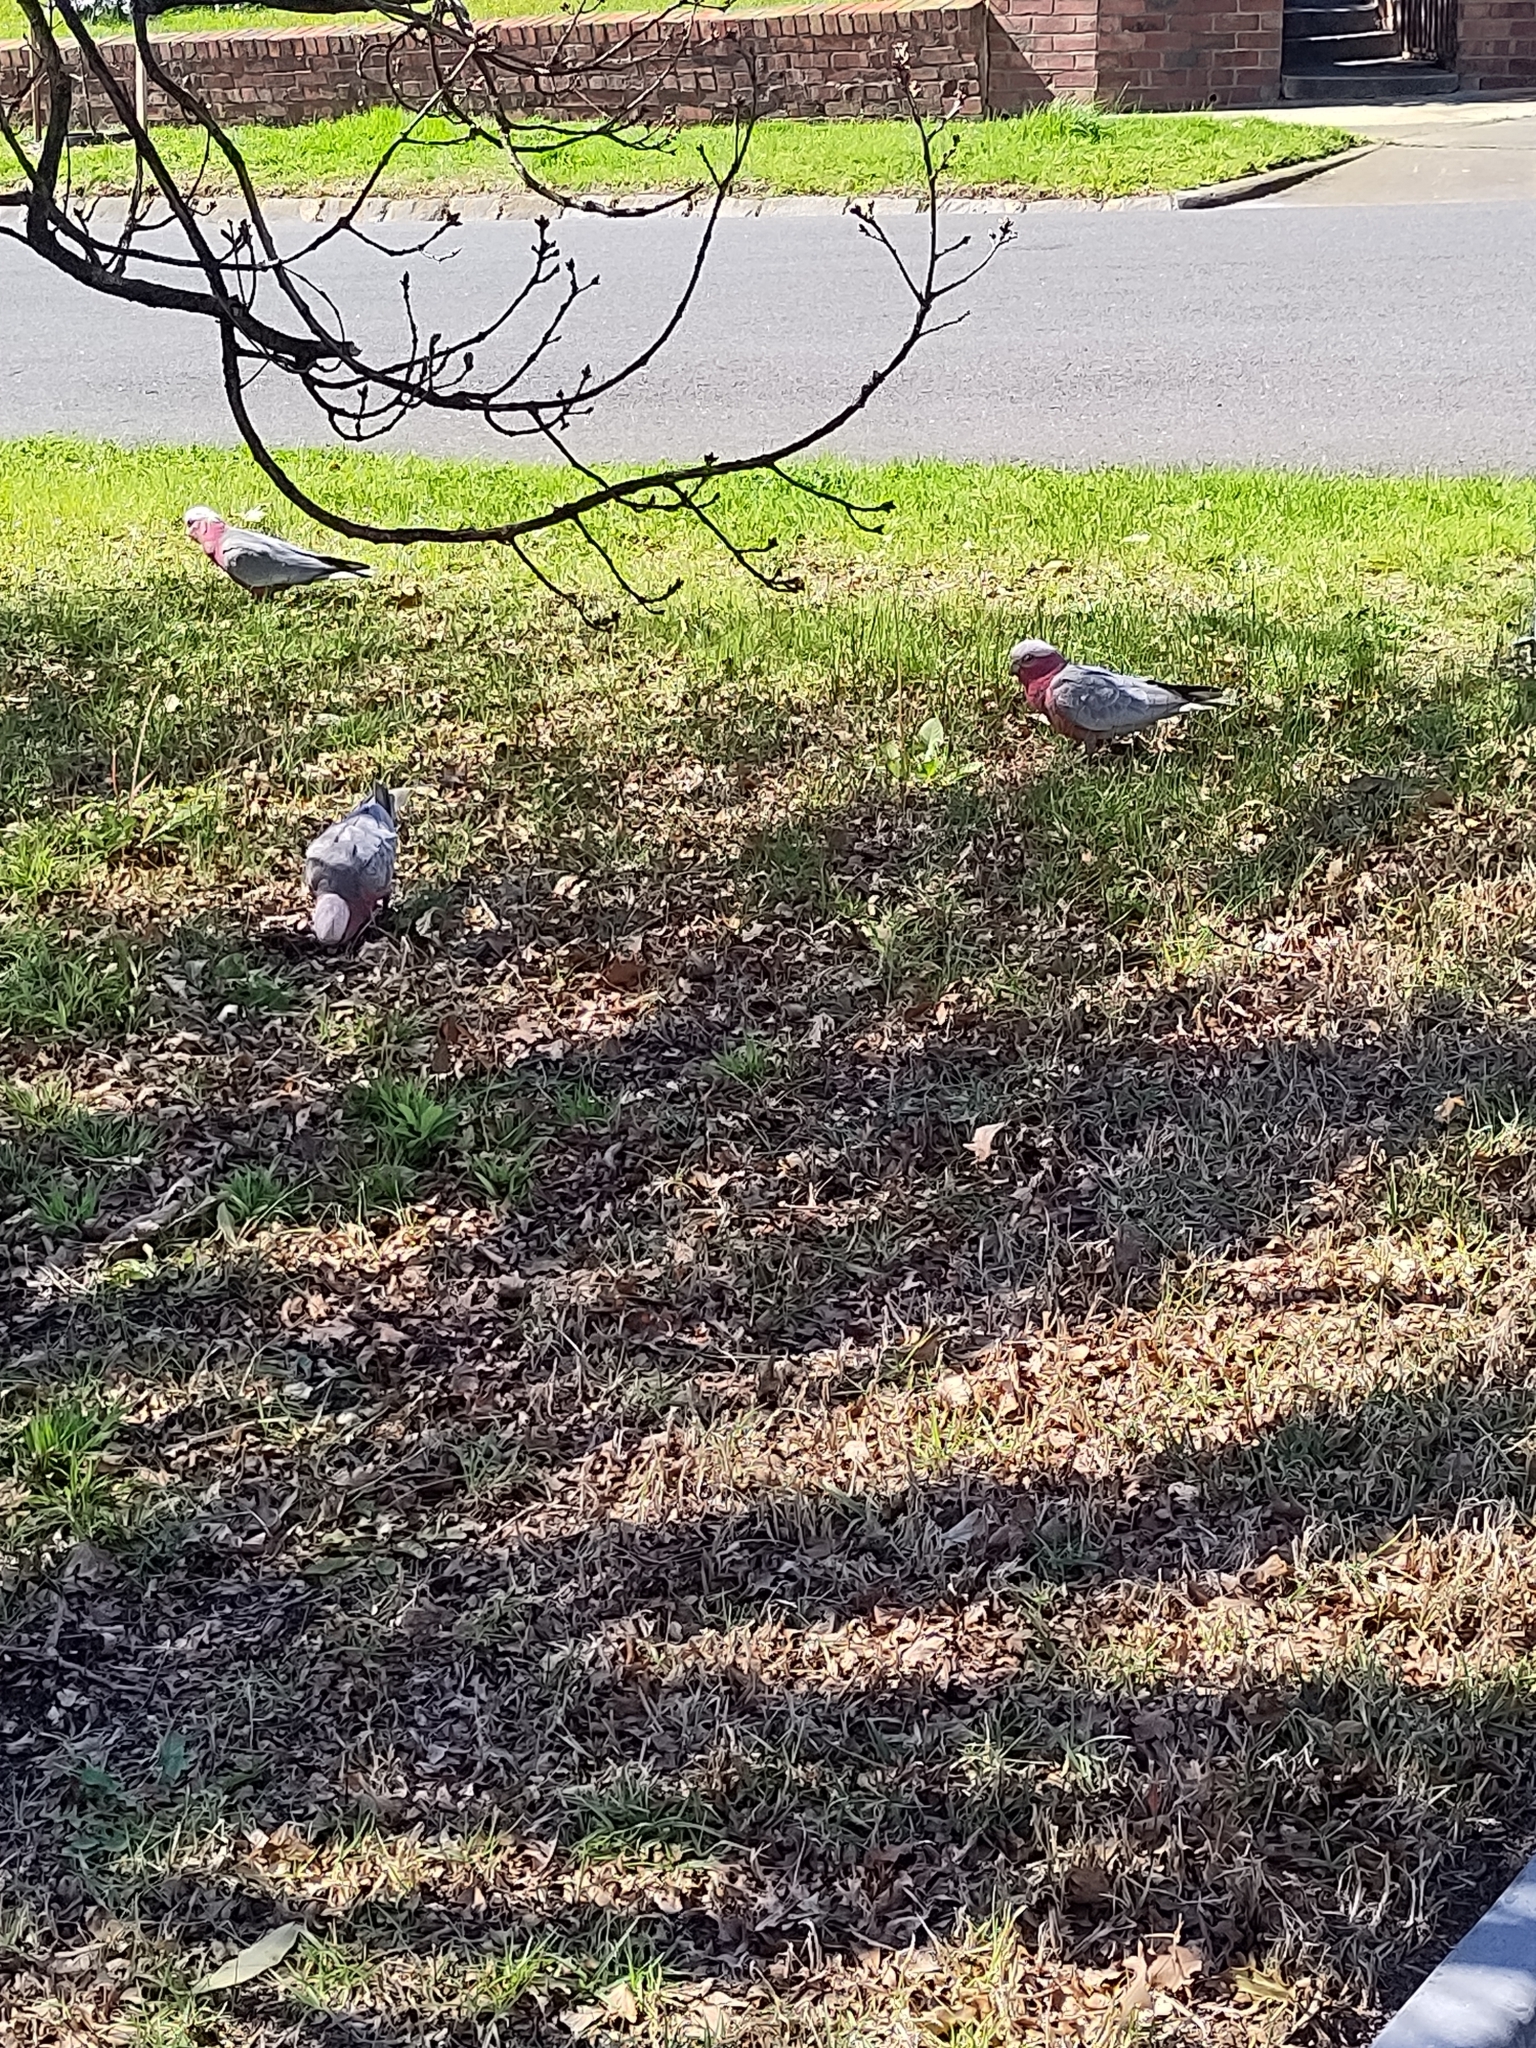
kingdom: Animalia
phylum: Chordata
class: Aves
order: Psittaciformes
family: Psittacidae
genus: Eolophus
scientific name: Eolophus roseicapilla
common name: Galah
